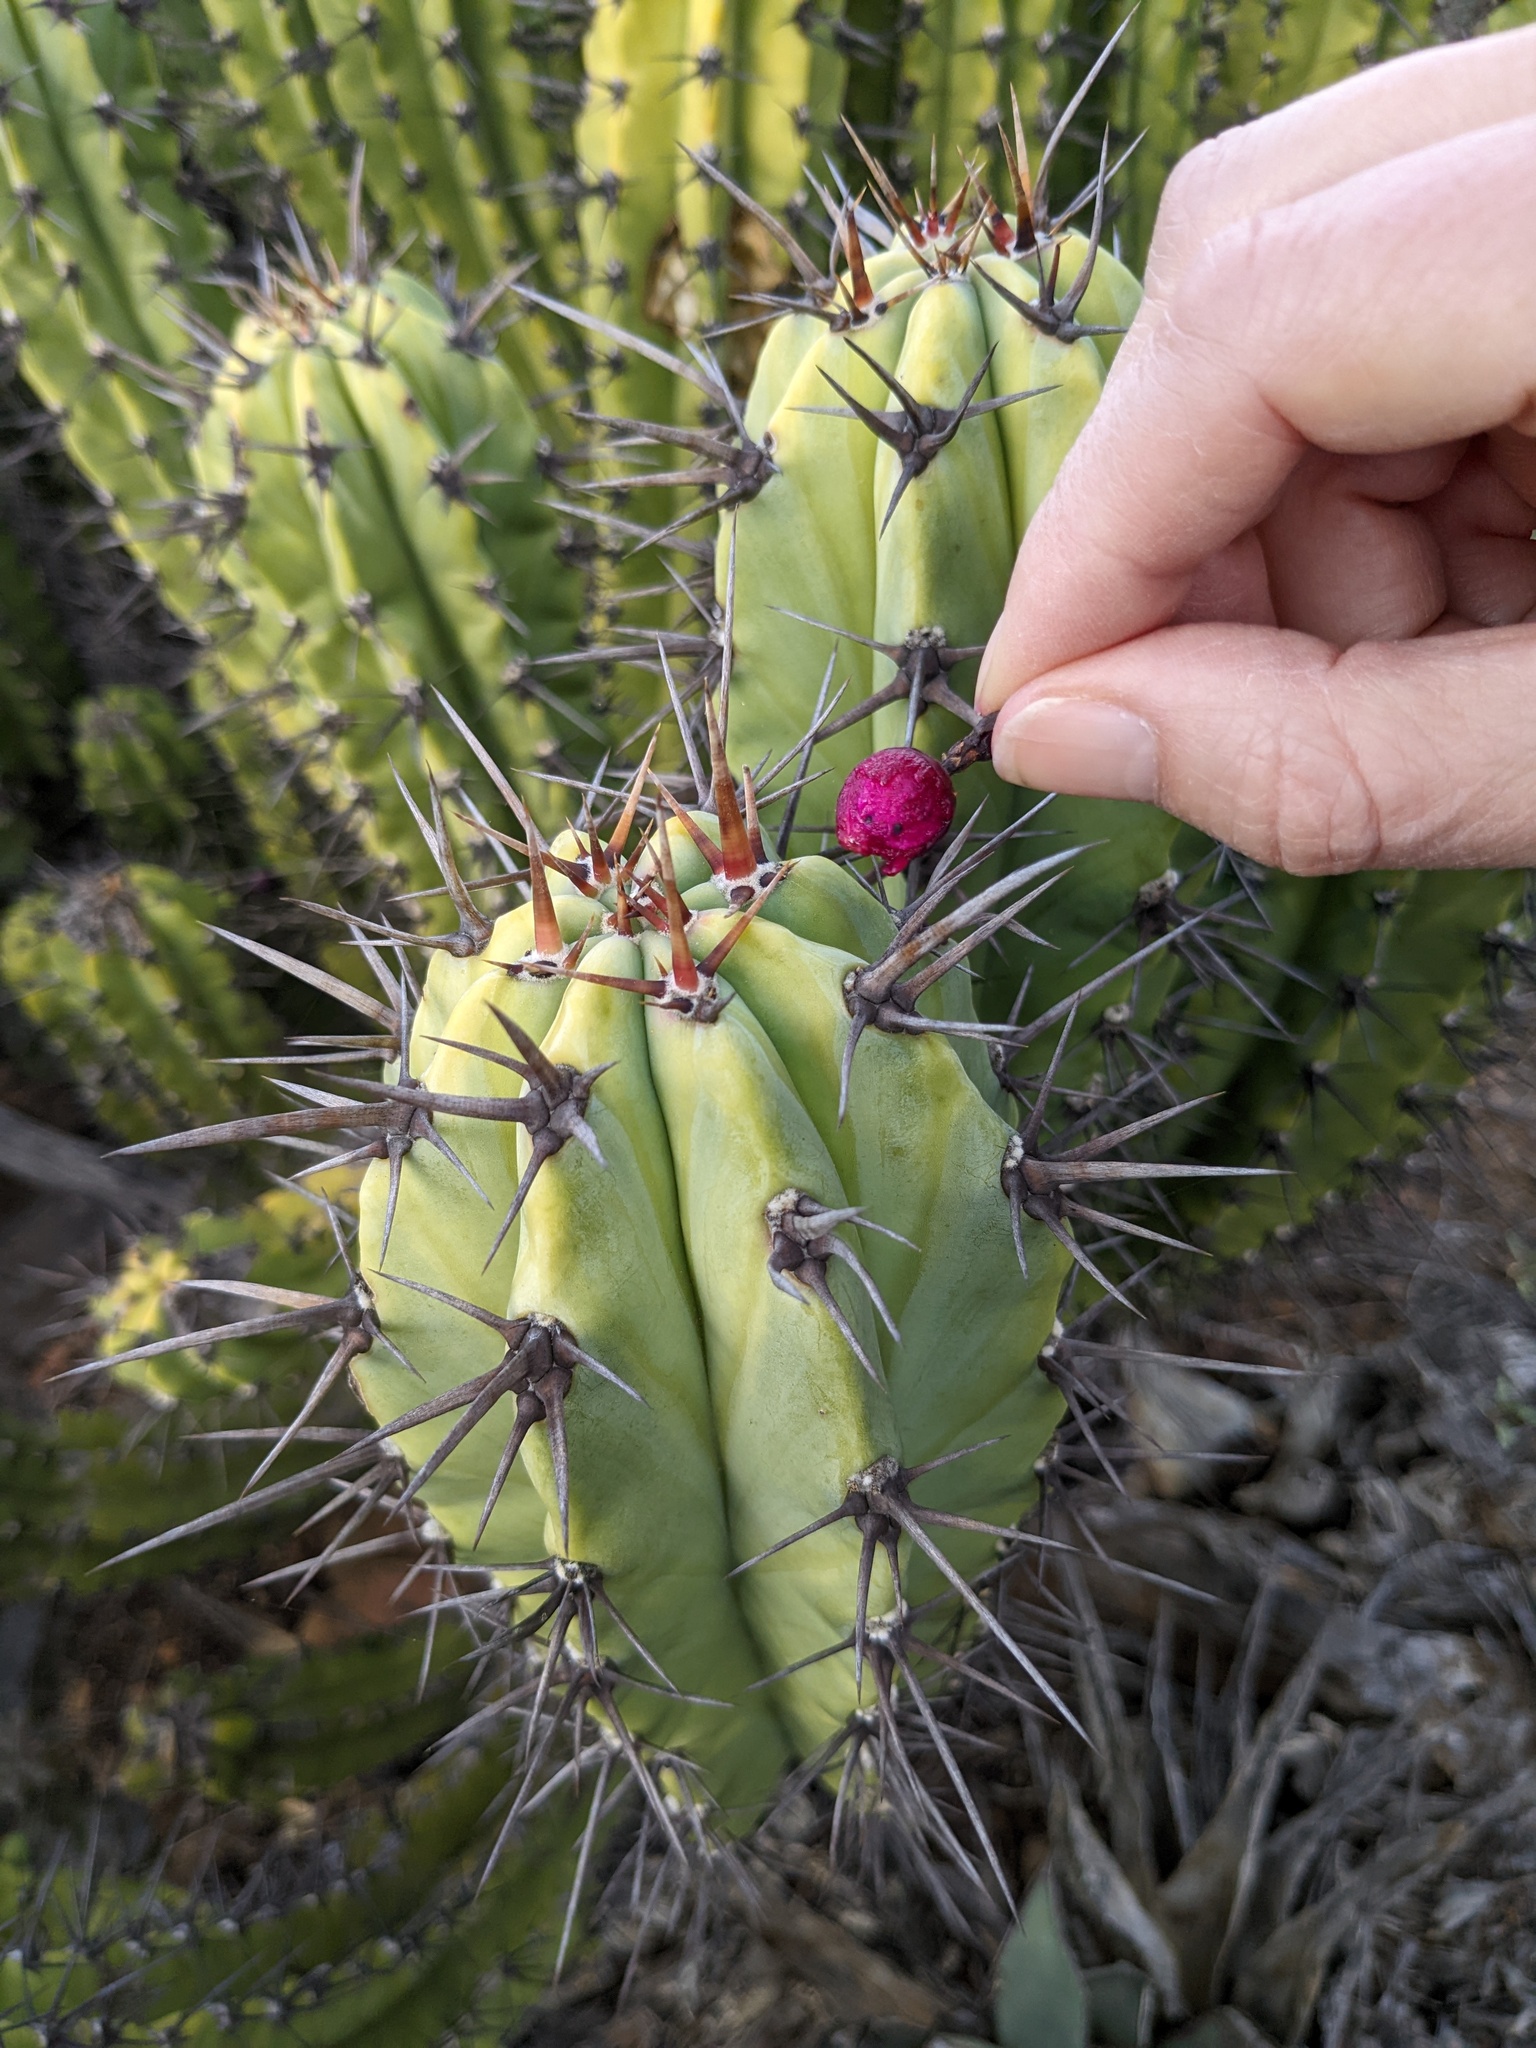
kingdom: Plantae
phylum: Tracheophyta
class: Magnoliopsida
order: Caryophyllales
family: Cactaceae
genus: Myrtillocactus
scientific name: Myrtillocactus cochal
